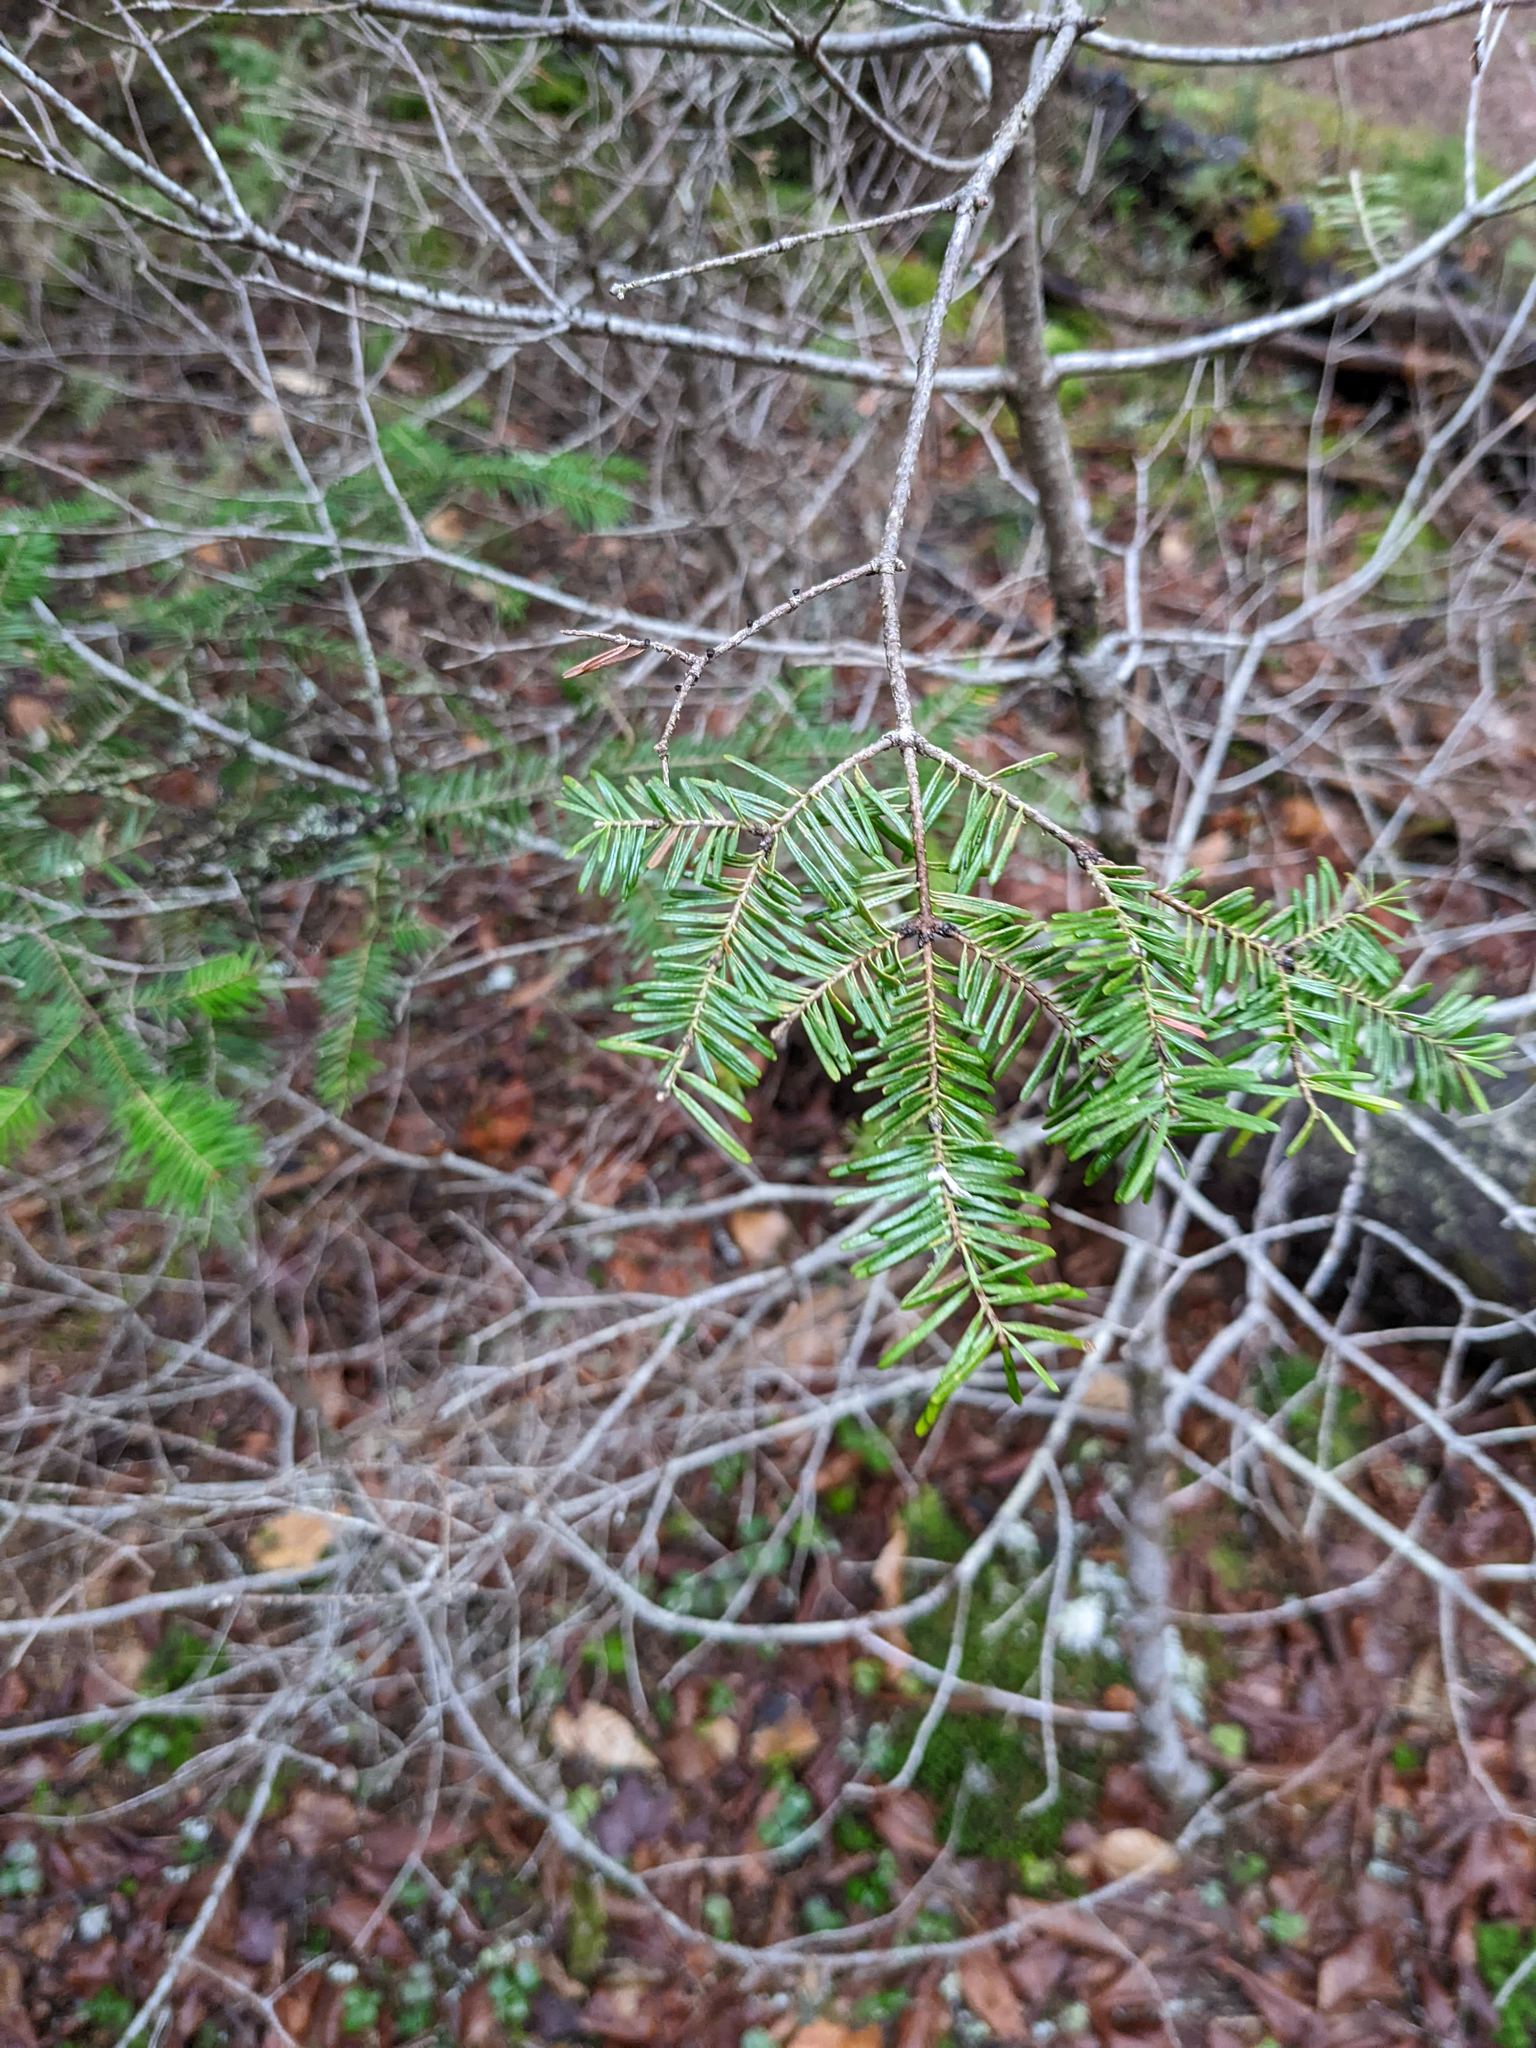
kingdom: Plantae
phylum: Tracheophyta
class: Pinopsida
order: Pinales
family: Pinaceae
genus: Abies
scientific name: Abies balsamea
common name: Balsam fir
